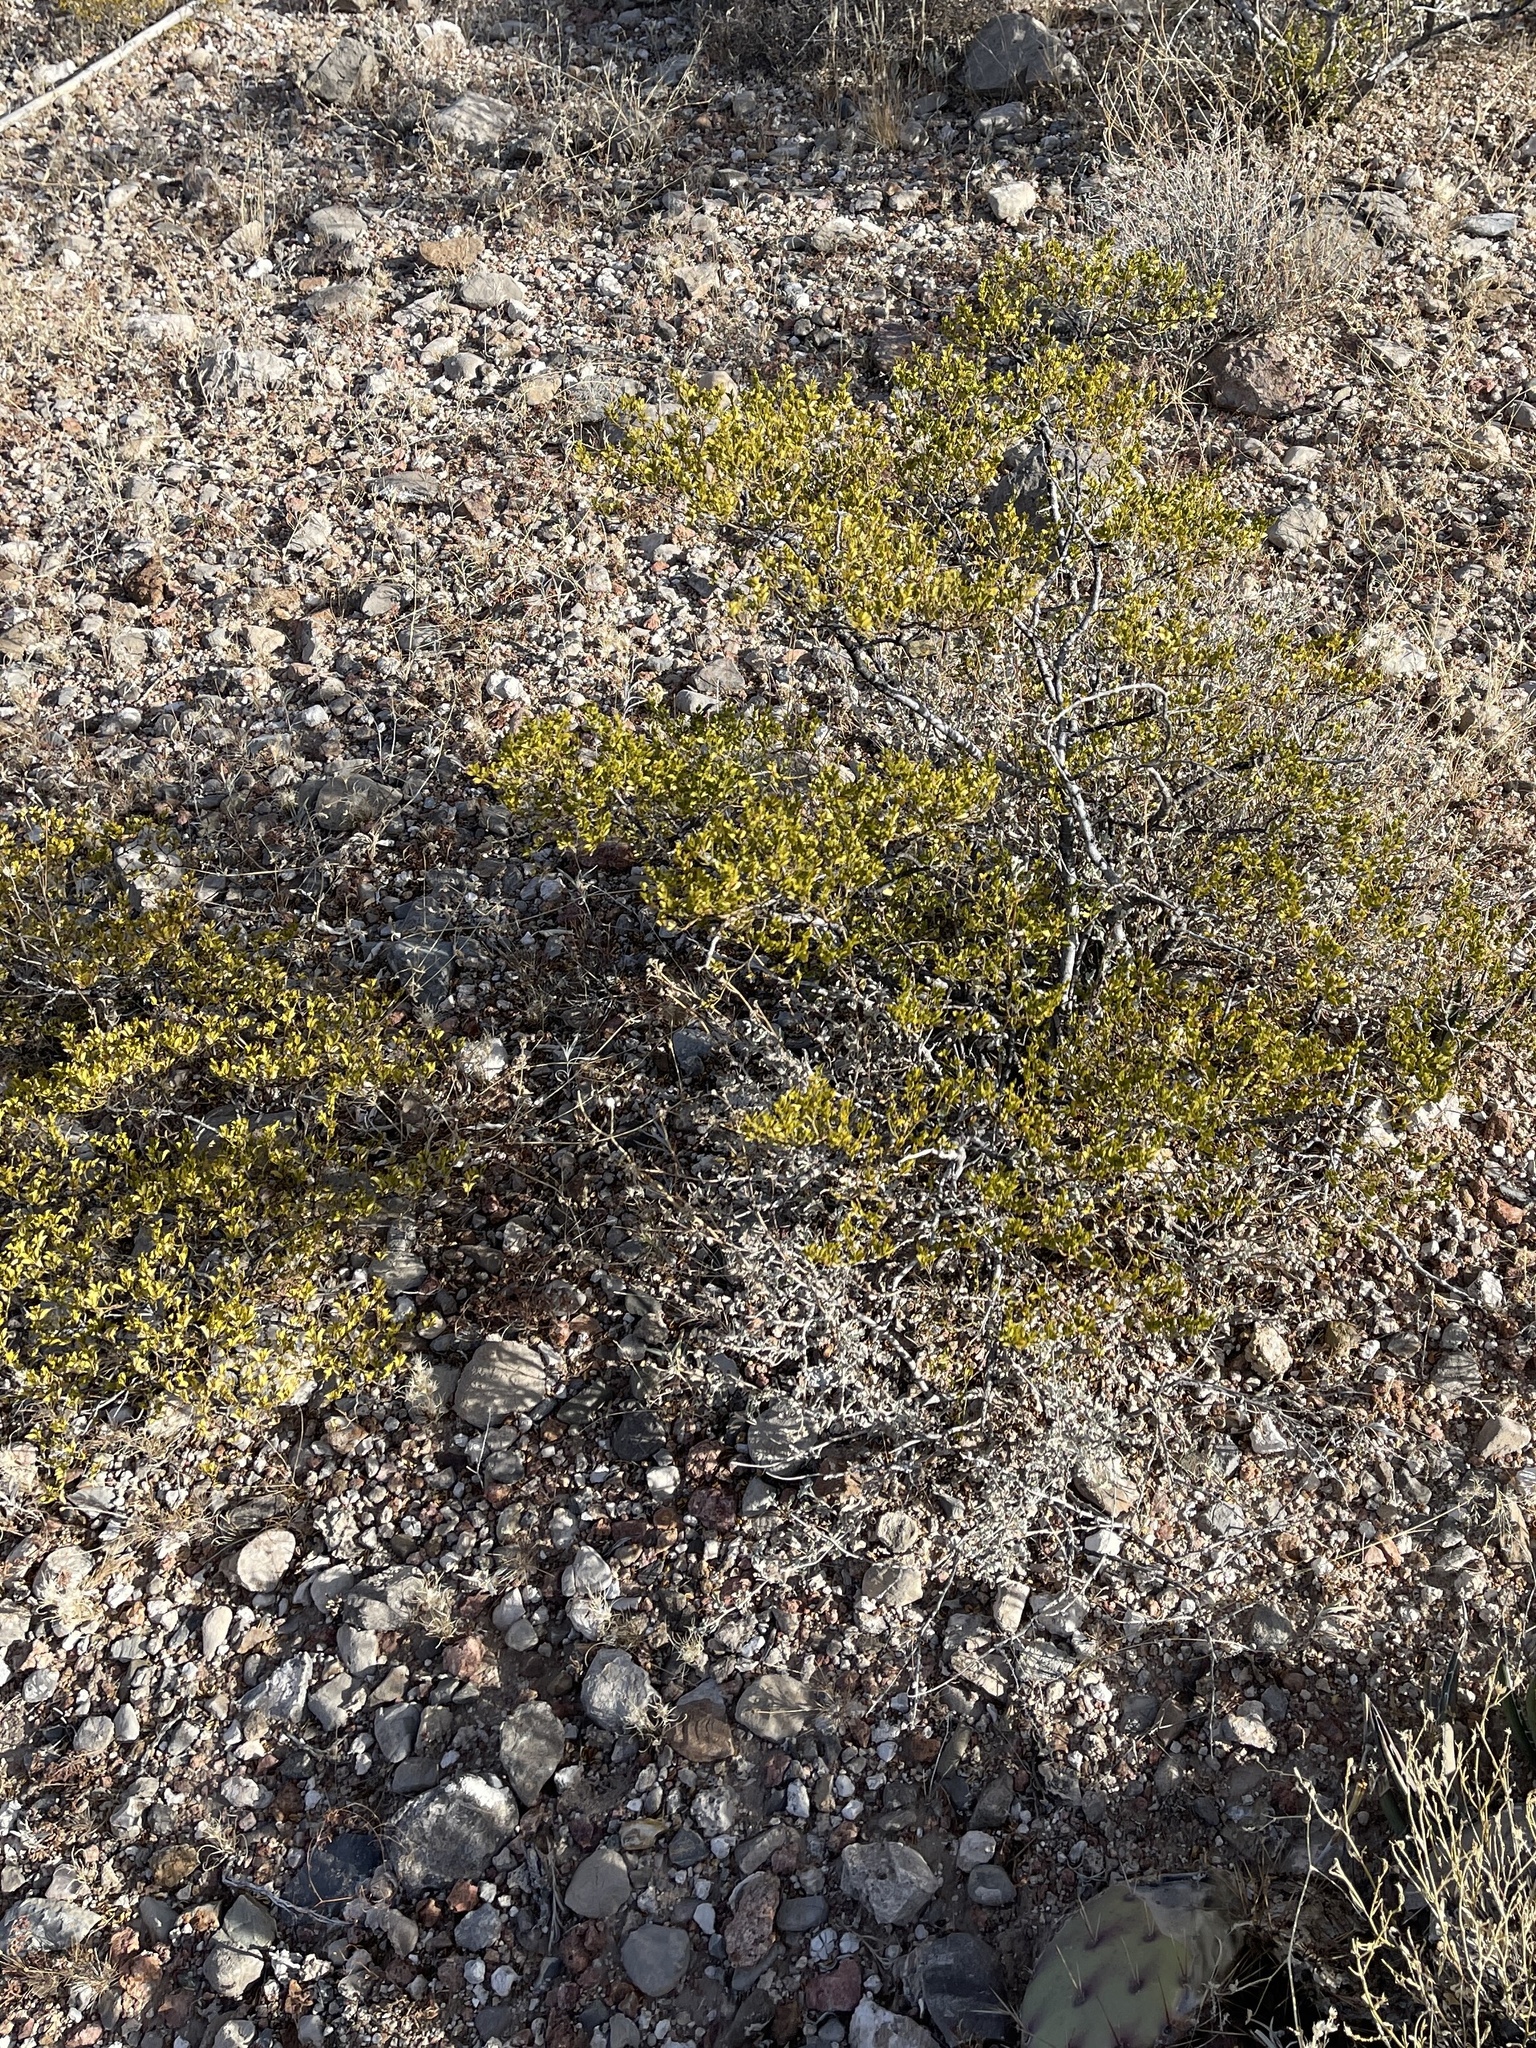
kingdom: Plantae
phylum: Tracheophyta
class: Magnoliopsida
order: Zygophyllales
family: Zygophyllaceae
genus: Larrea
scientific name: Larrea tridentata
